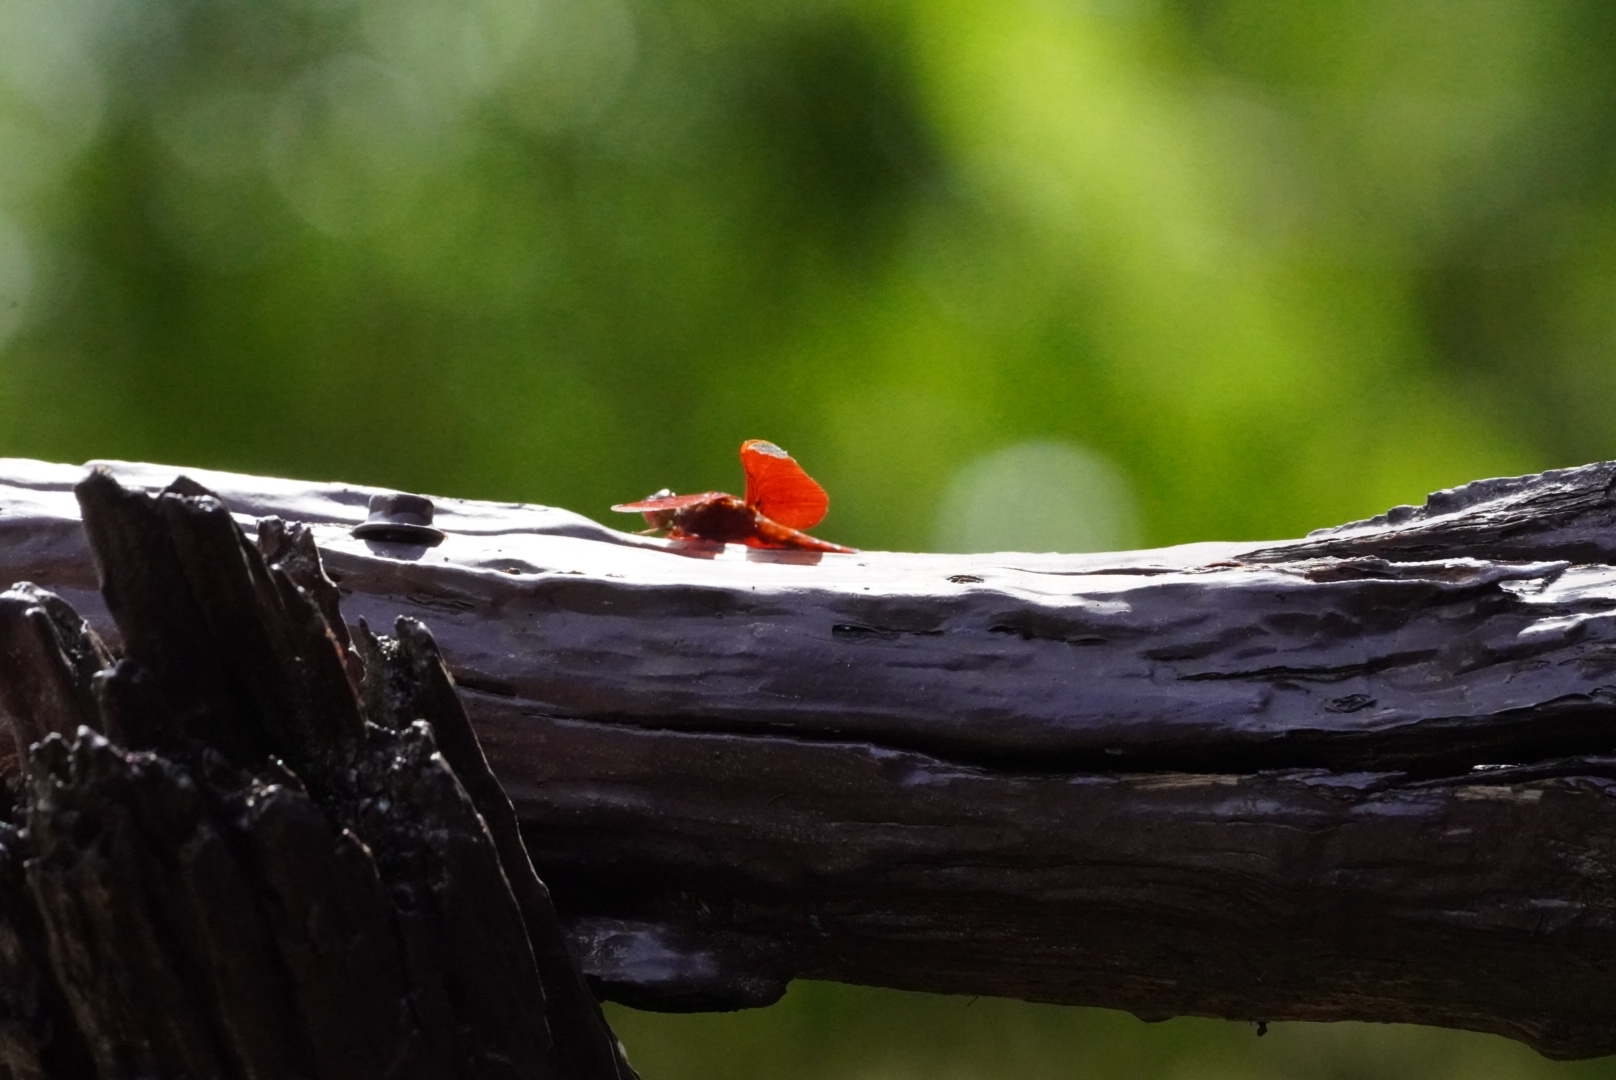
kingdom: Animalia
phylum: Arthropoda
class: Insecta
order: Odonata
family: Libellulidae
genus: Neurothemis
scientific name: Neurothemis fulvia
